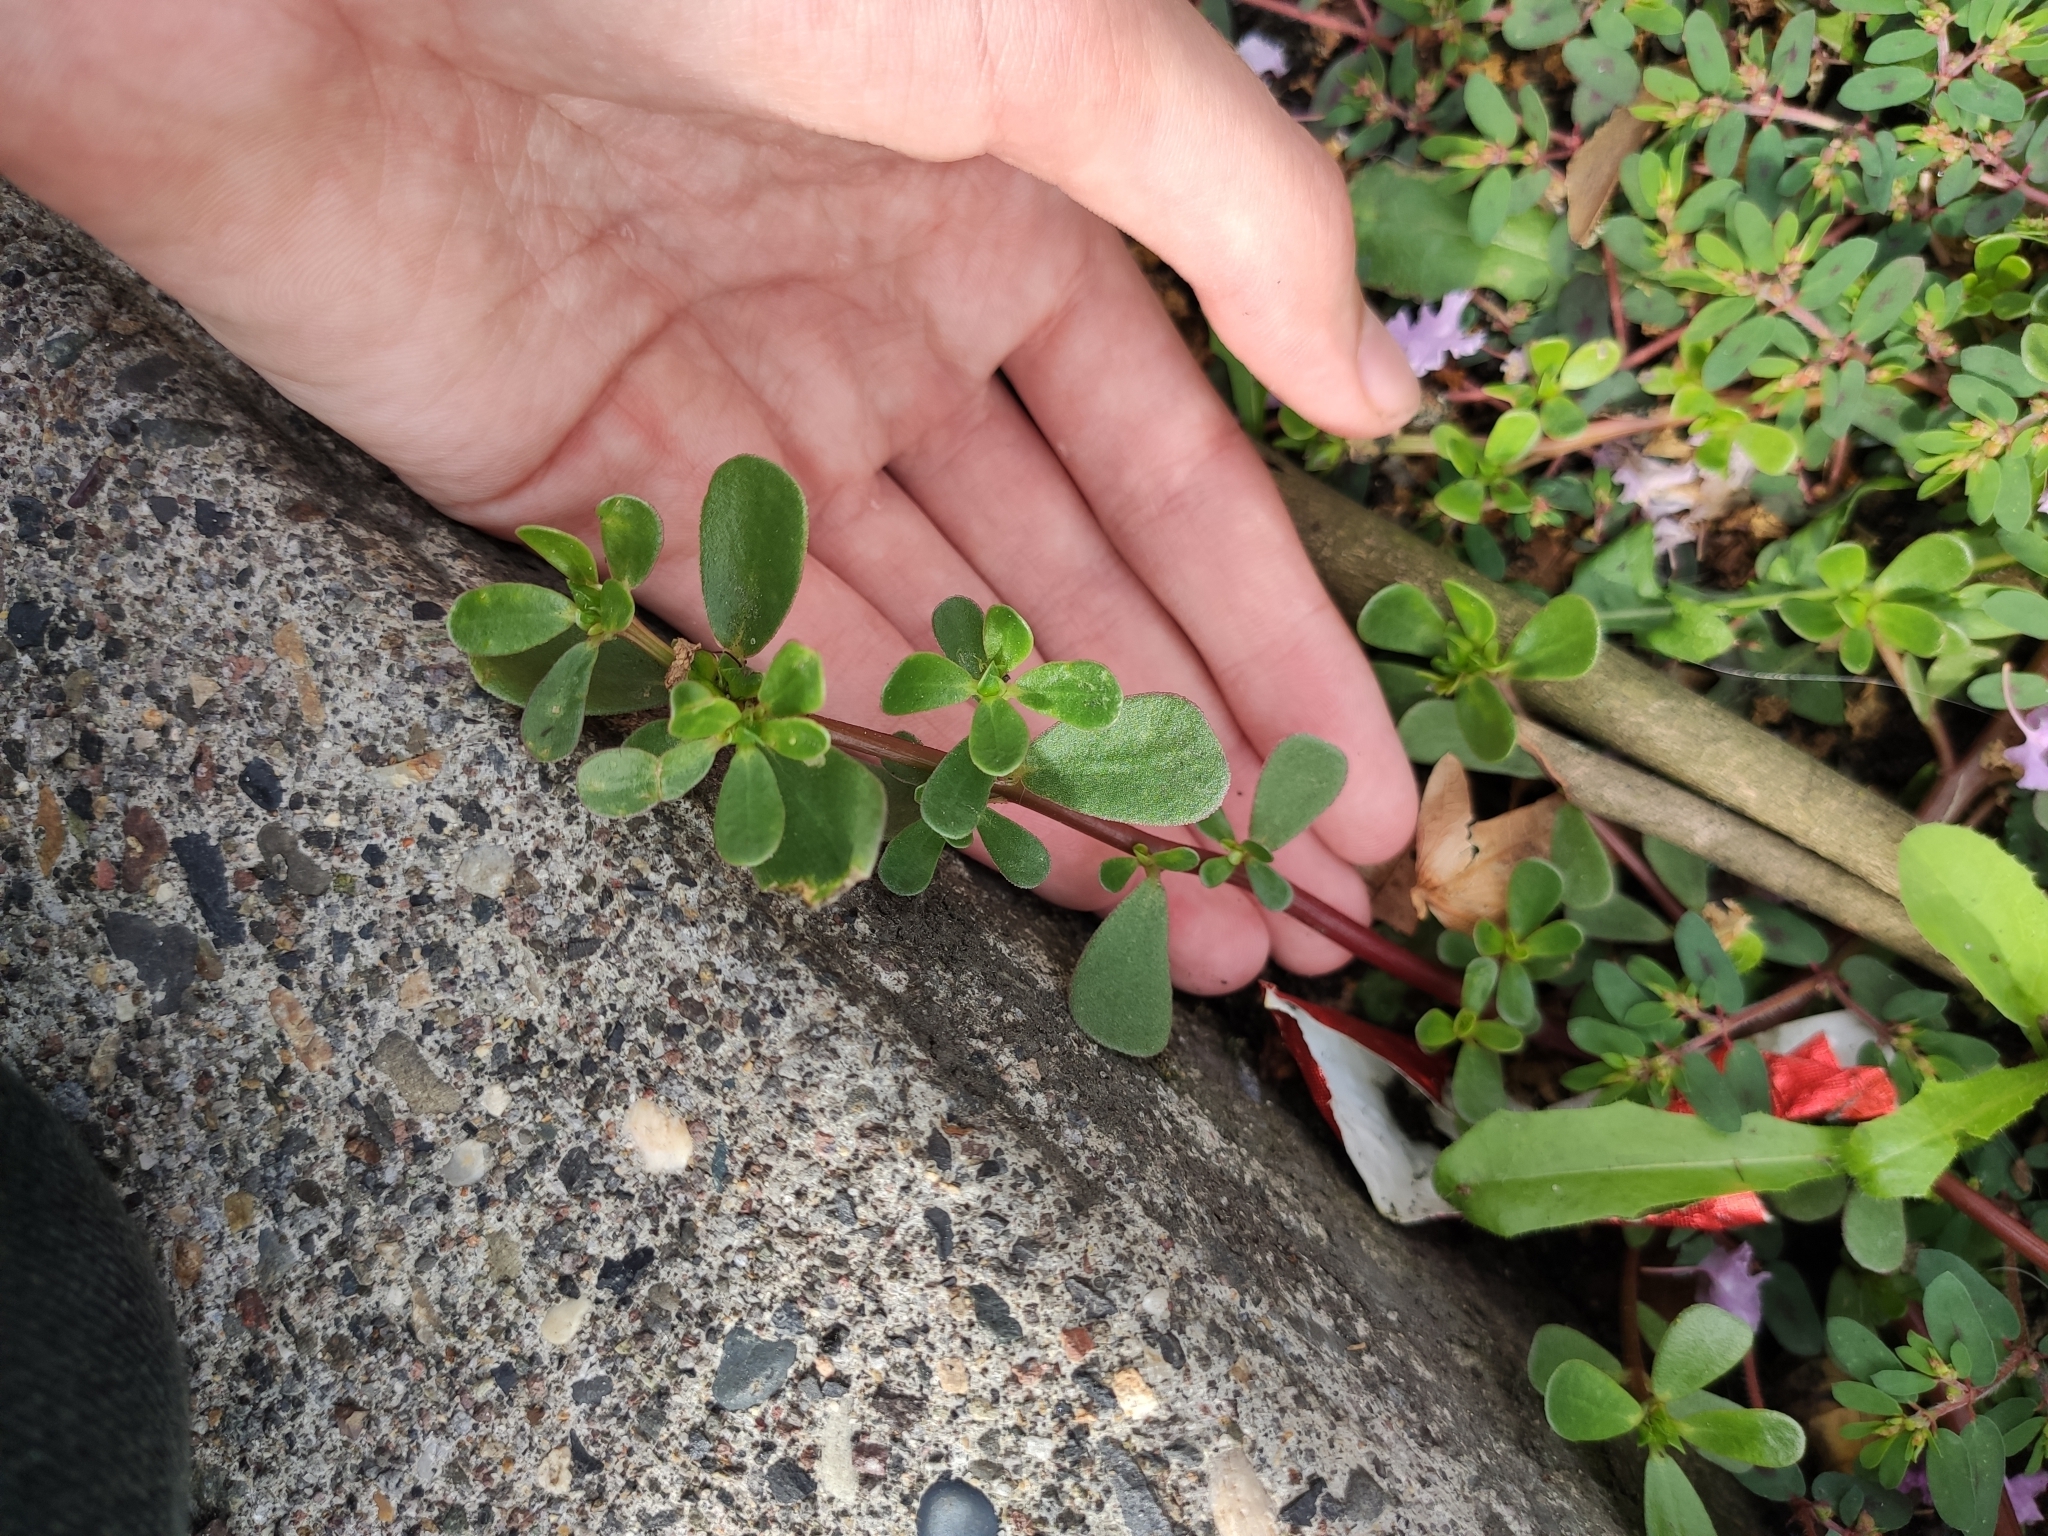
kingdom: Plantae
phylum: Tracheophyta
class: Magnoliopsida
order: Caryophyllales
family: Portulacaceae
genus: Portulaca
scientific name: Portulaca oleracea
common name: Common purslane
